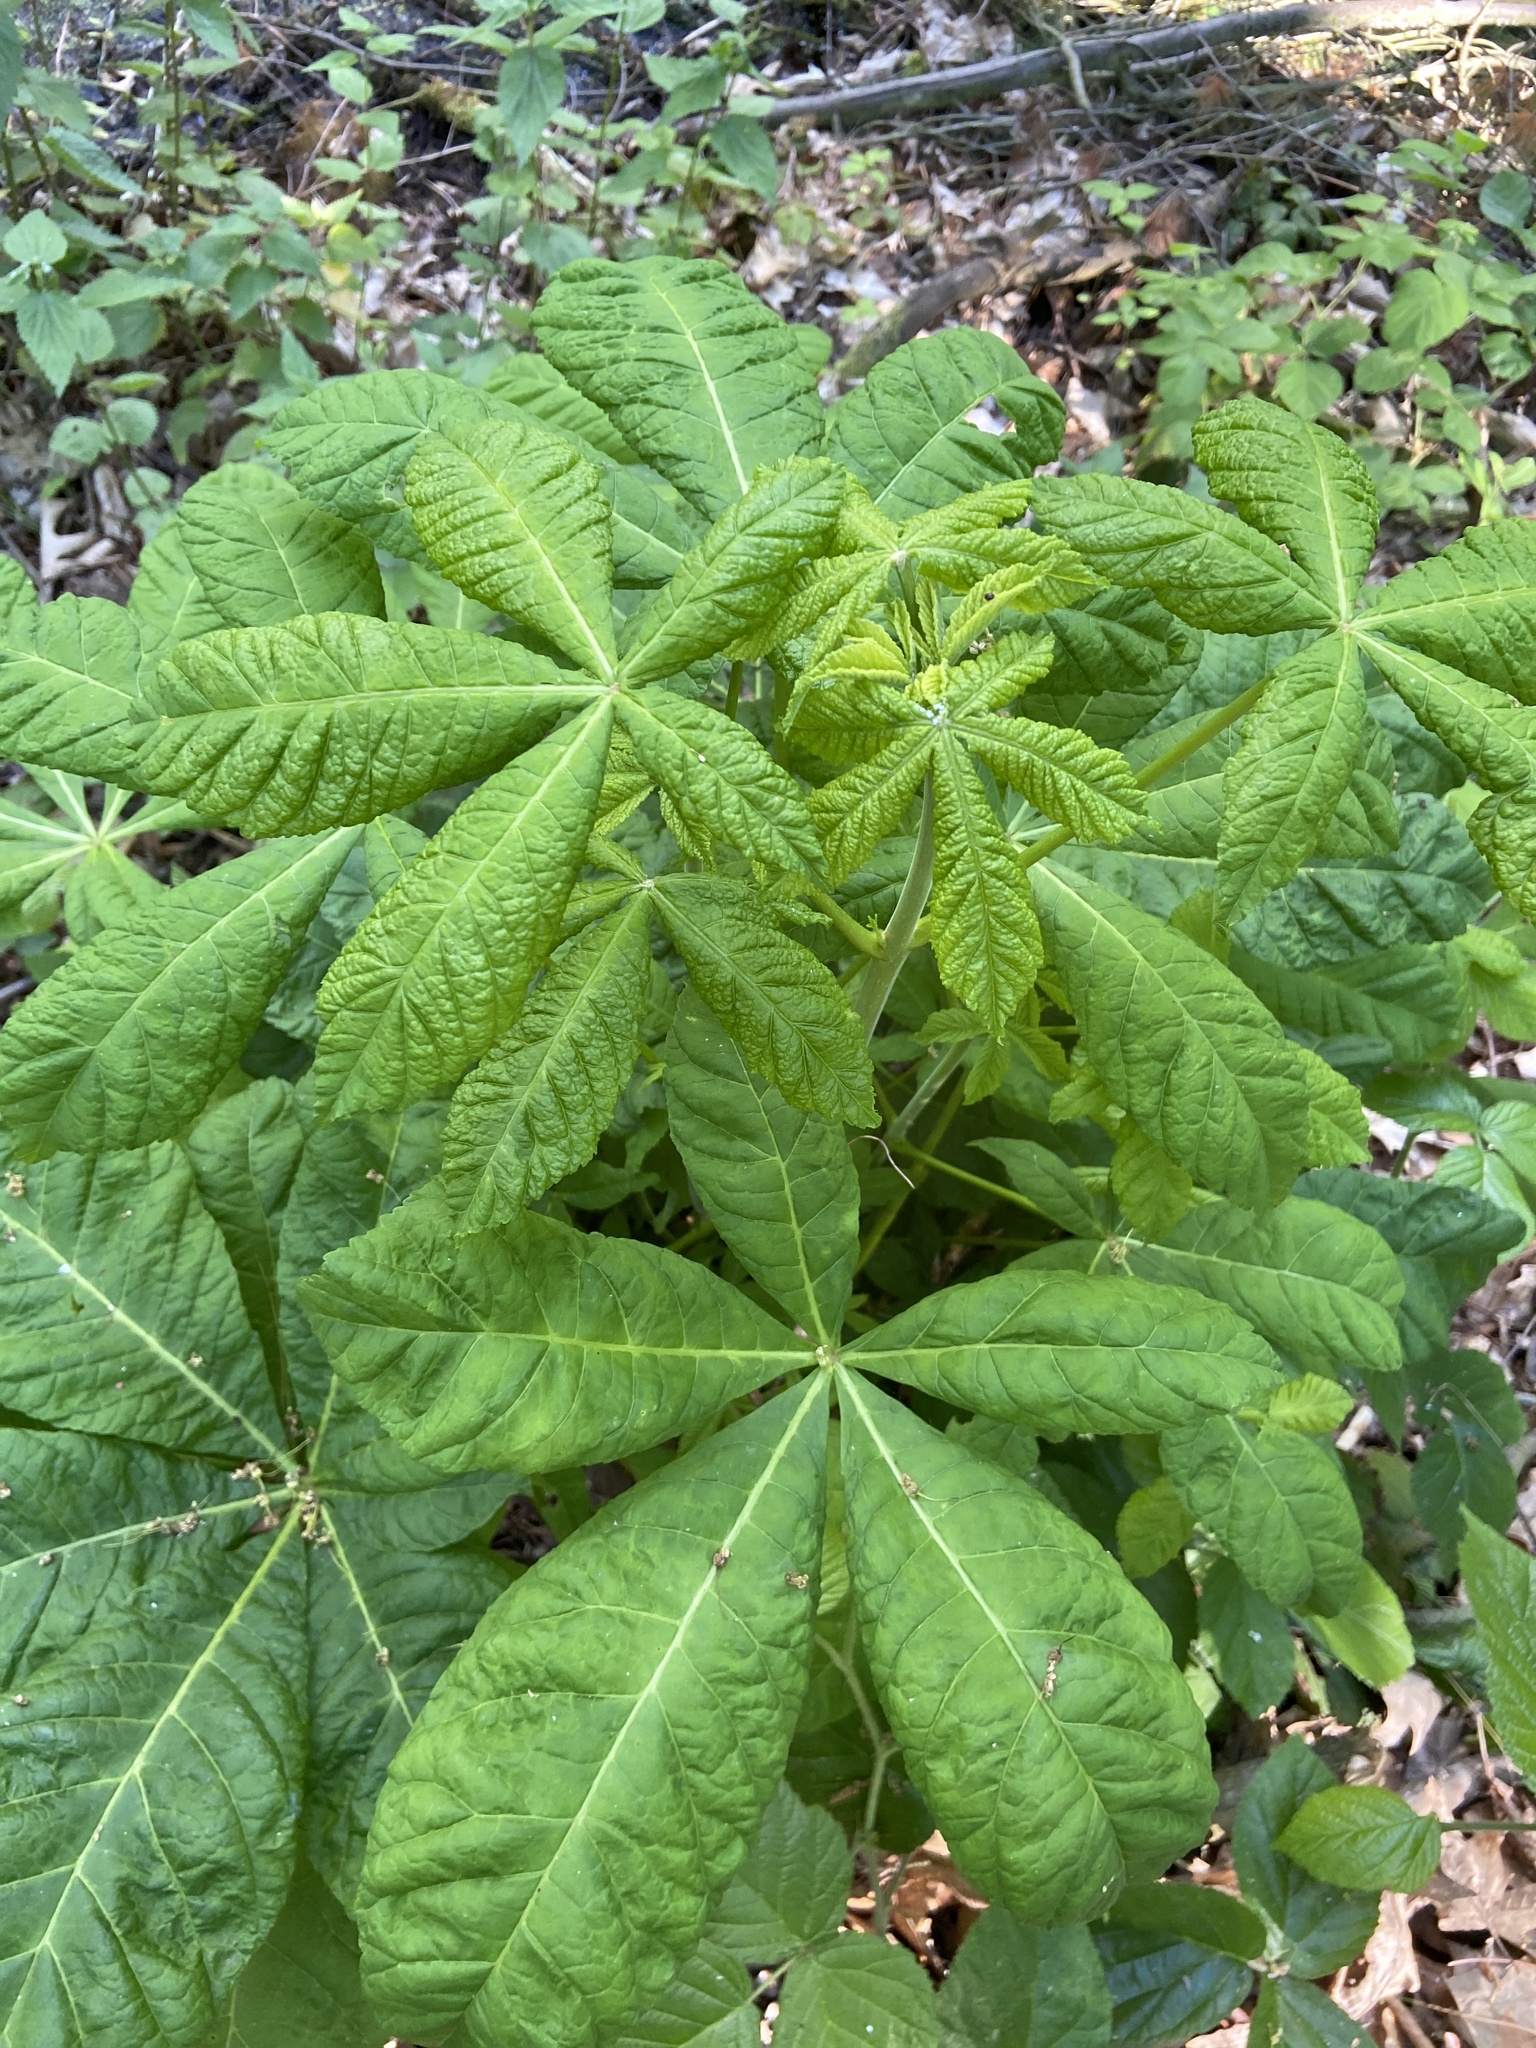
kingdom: Plantae
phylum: Tracheophyta
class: Magnoliopsida
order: Sapindales
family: Sapindaceae
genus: Aesculus
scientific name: Aesculus hippocastanum
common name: Horse-chestnut
